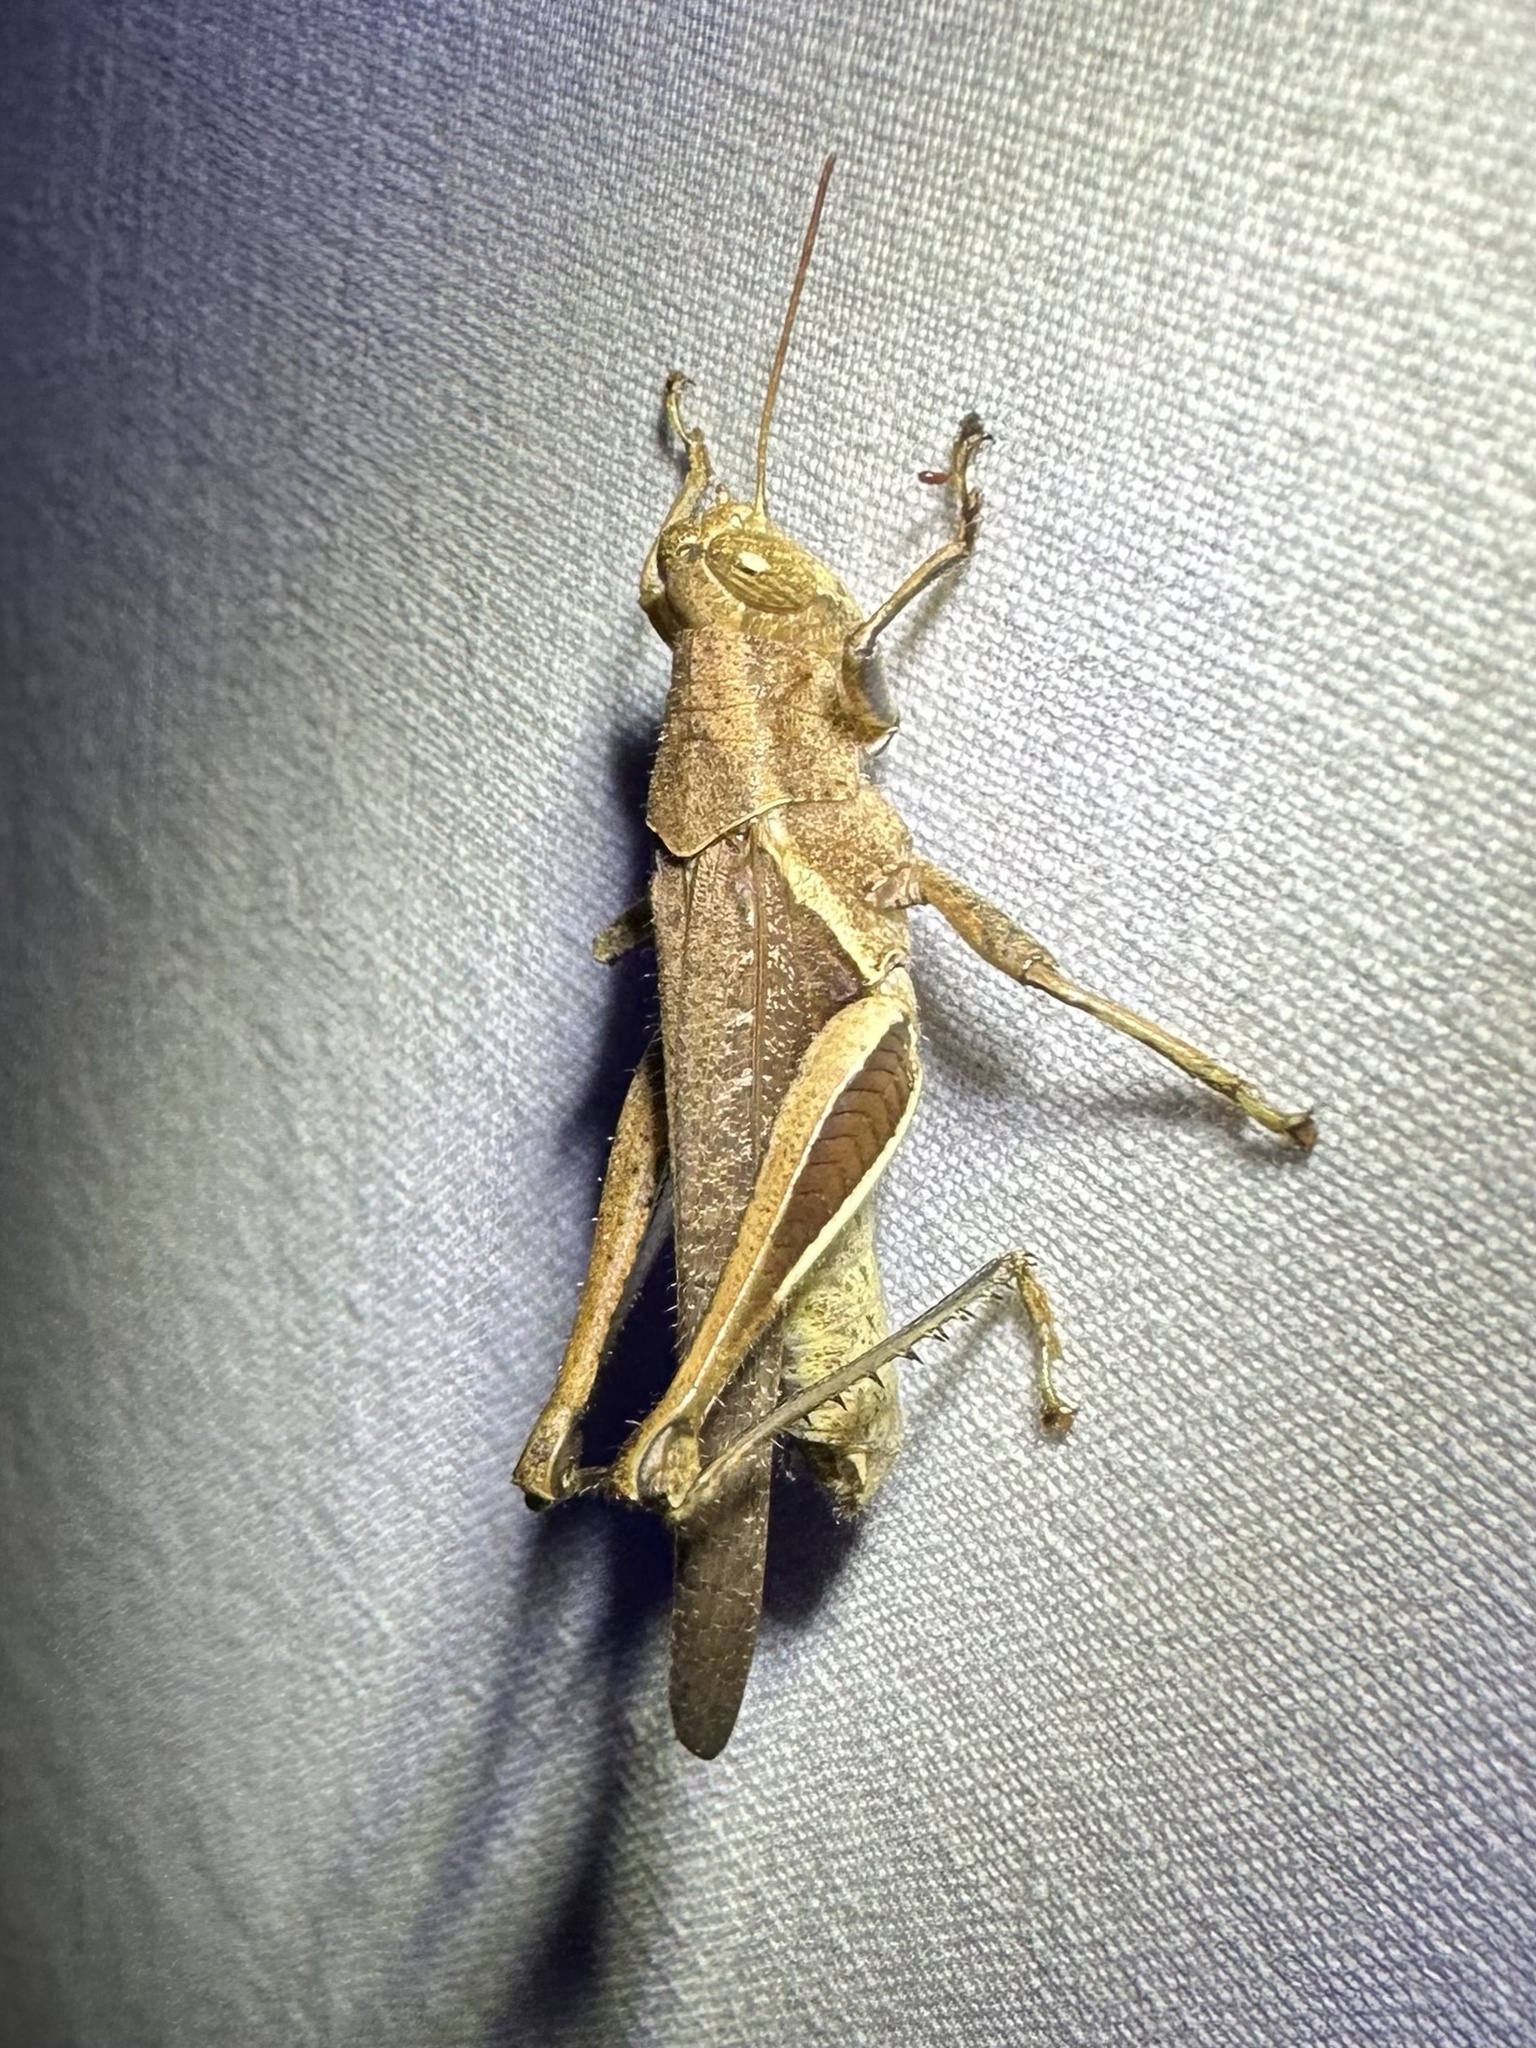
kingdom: Animalia
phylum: Arthropoda
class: Insecta
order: Orthoptera
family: Acrididae
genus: Abracris
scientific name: Abracris flavolineata
